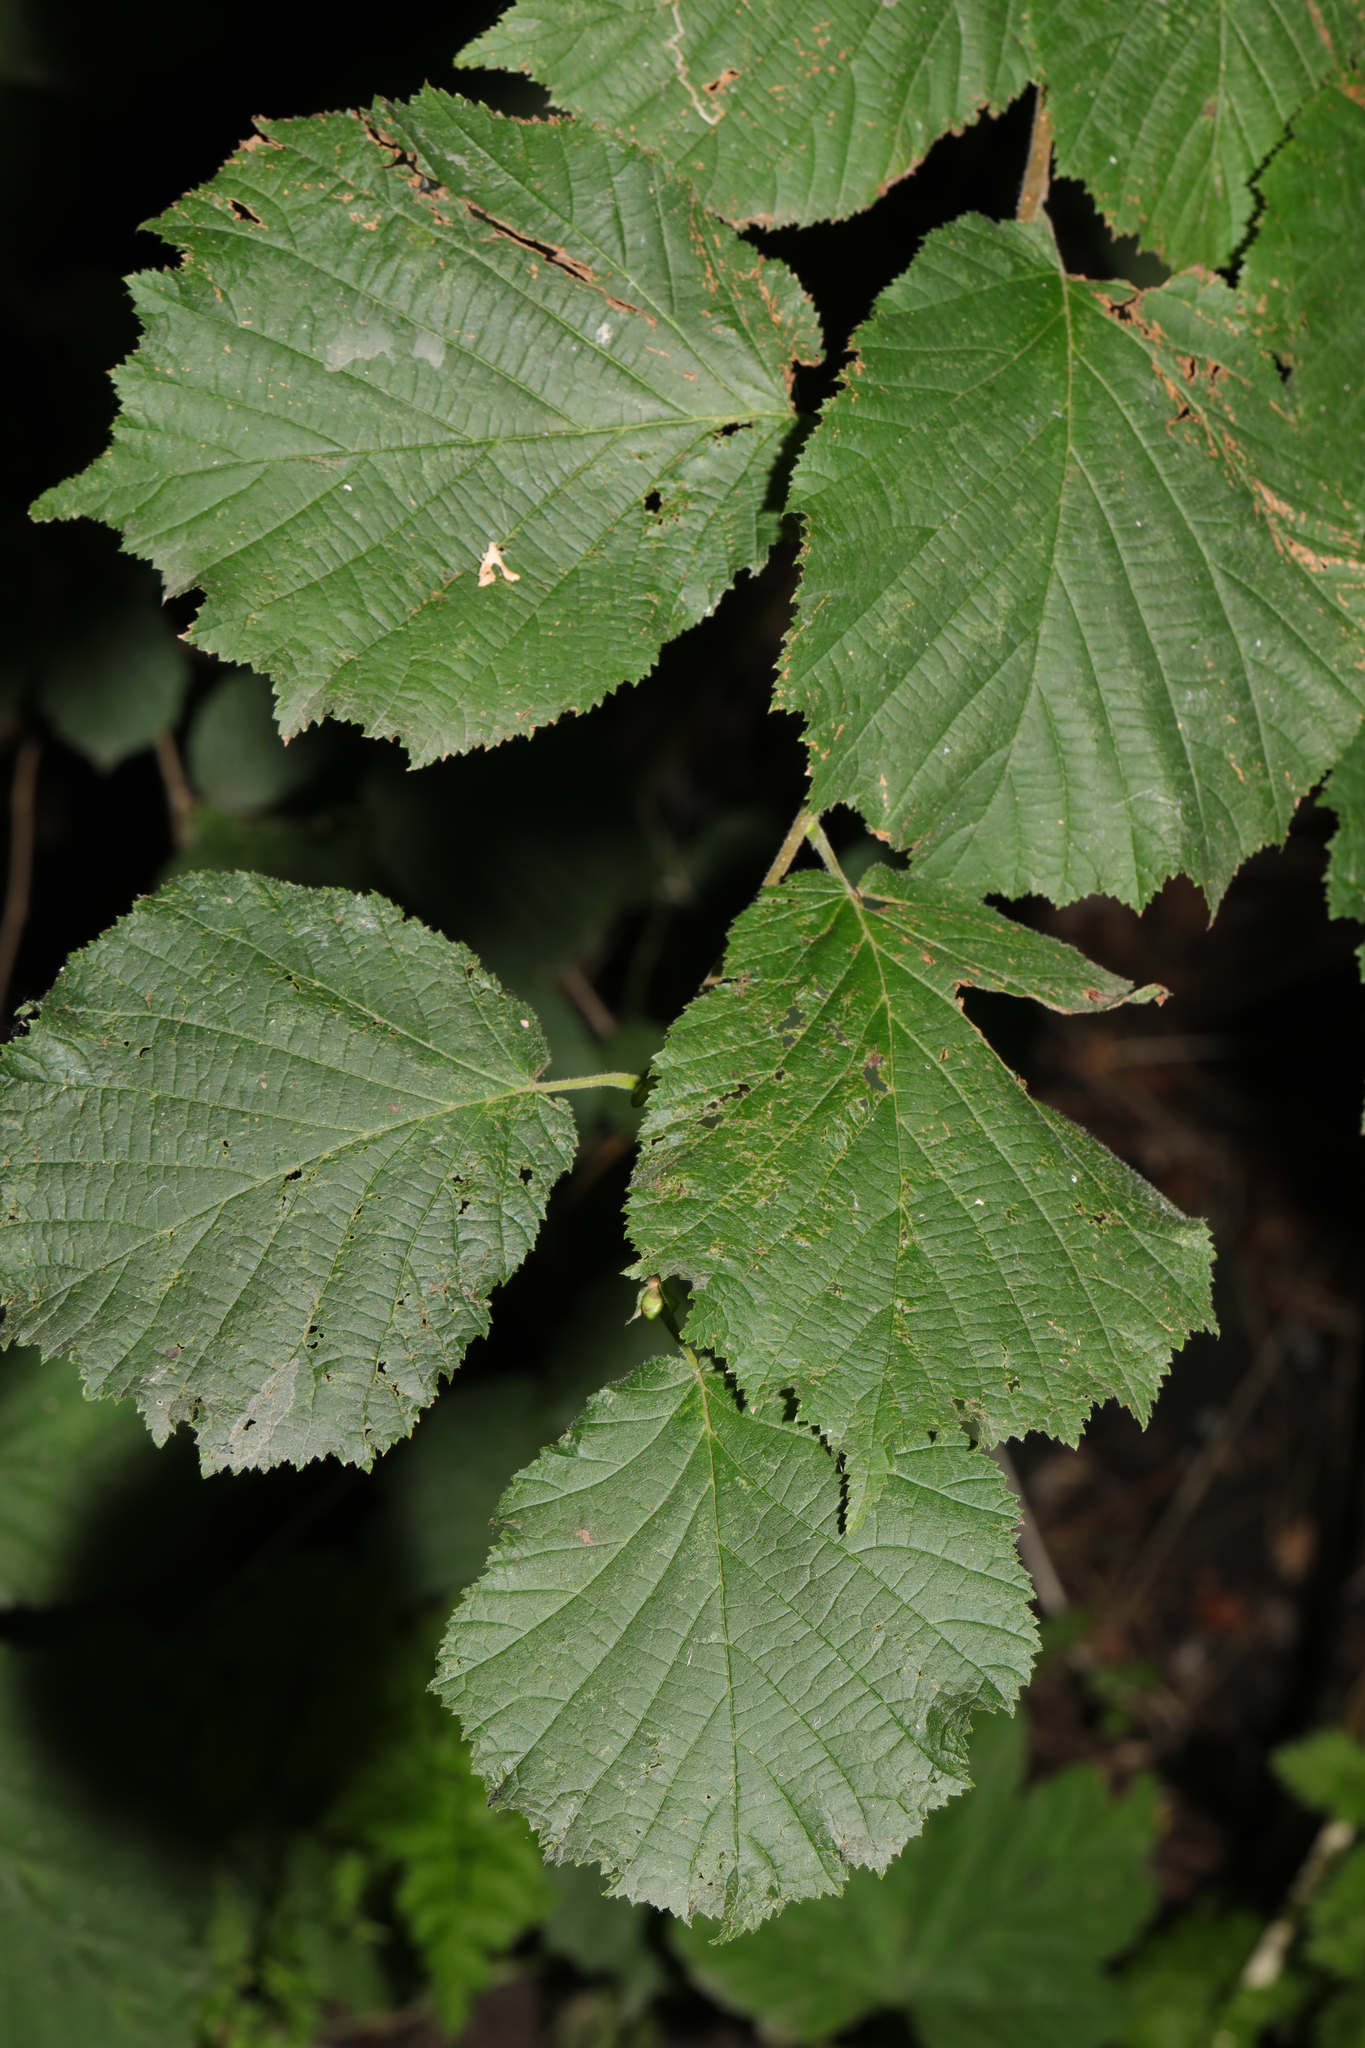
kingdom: Plantae
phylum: Tracheophyta
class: Magnoliopsida
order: Fagales
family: Betulaceae
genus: Corylus
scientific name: Corylus avellana
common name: European hazel
